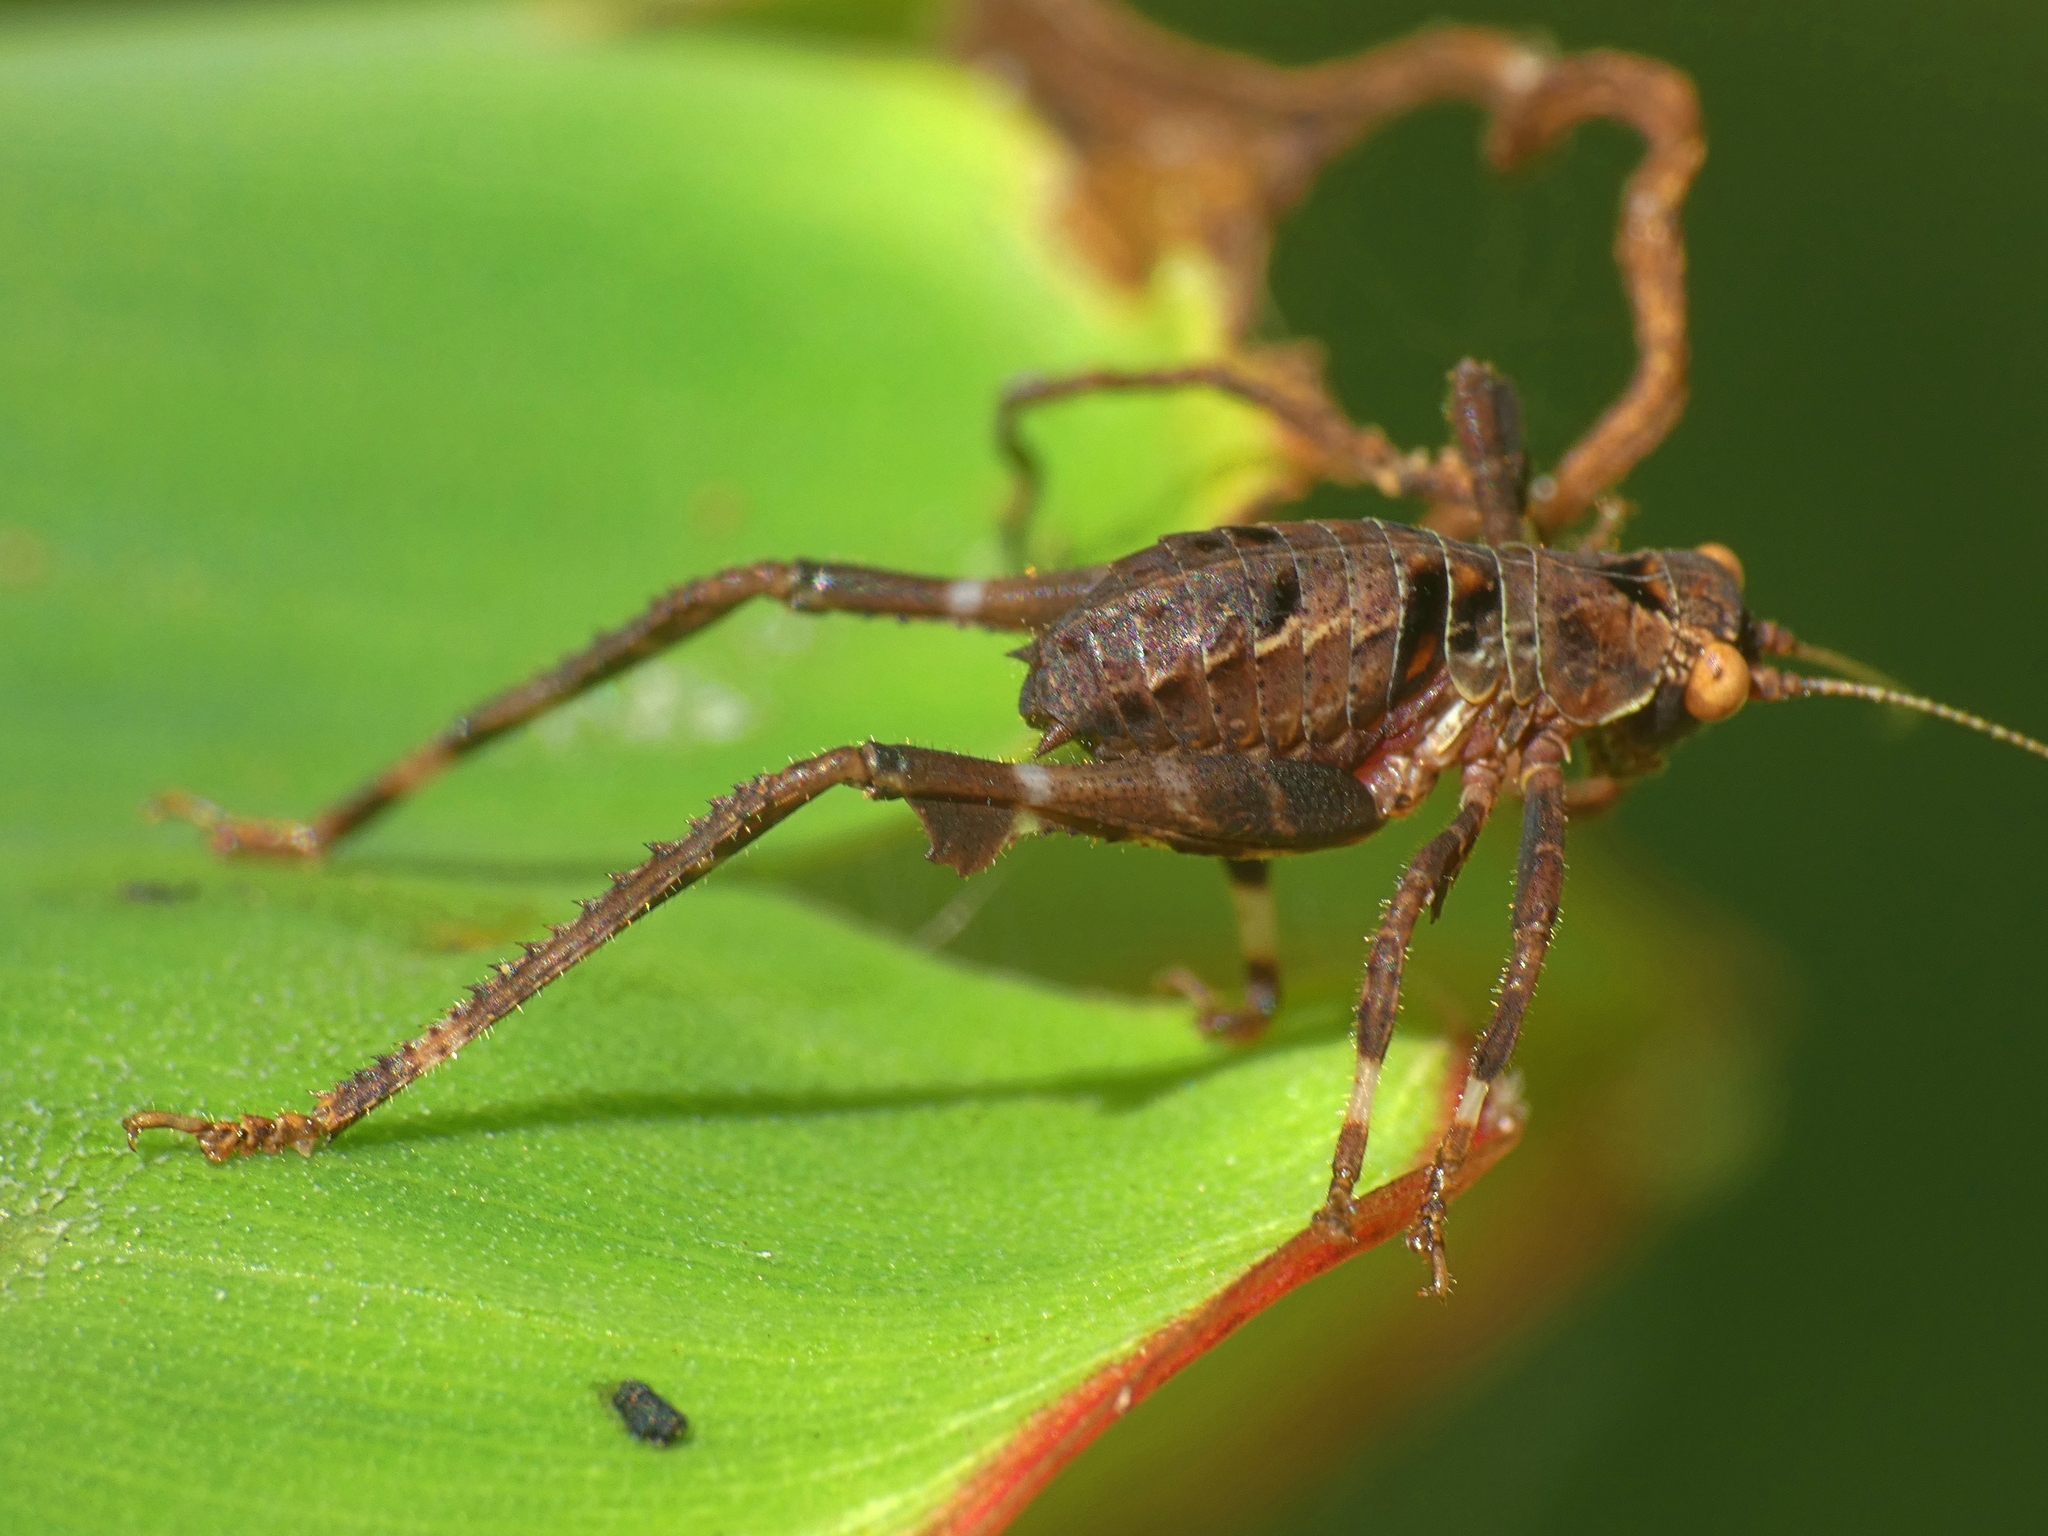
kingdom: Animalia
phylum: Arthropoda
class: Insecta
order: Orthoptera
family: Tettigoniidae
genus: Ephippitytha
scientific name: Ephippitytha kuranda
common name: Kuranda spotted katydid
